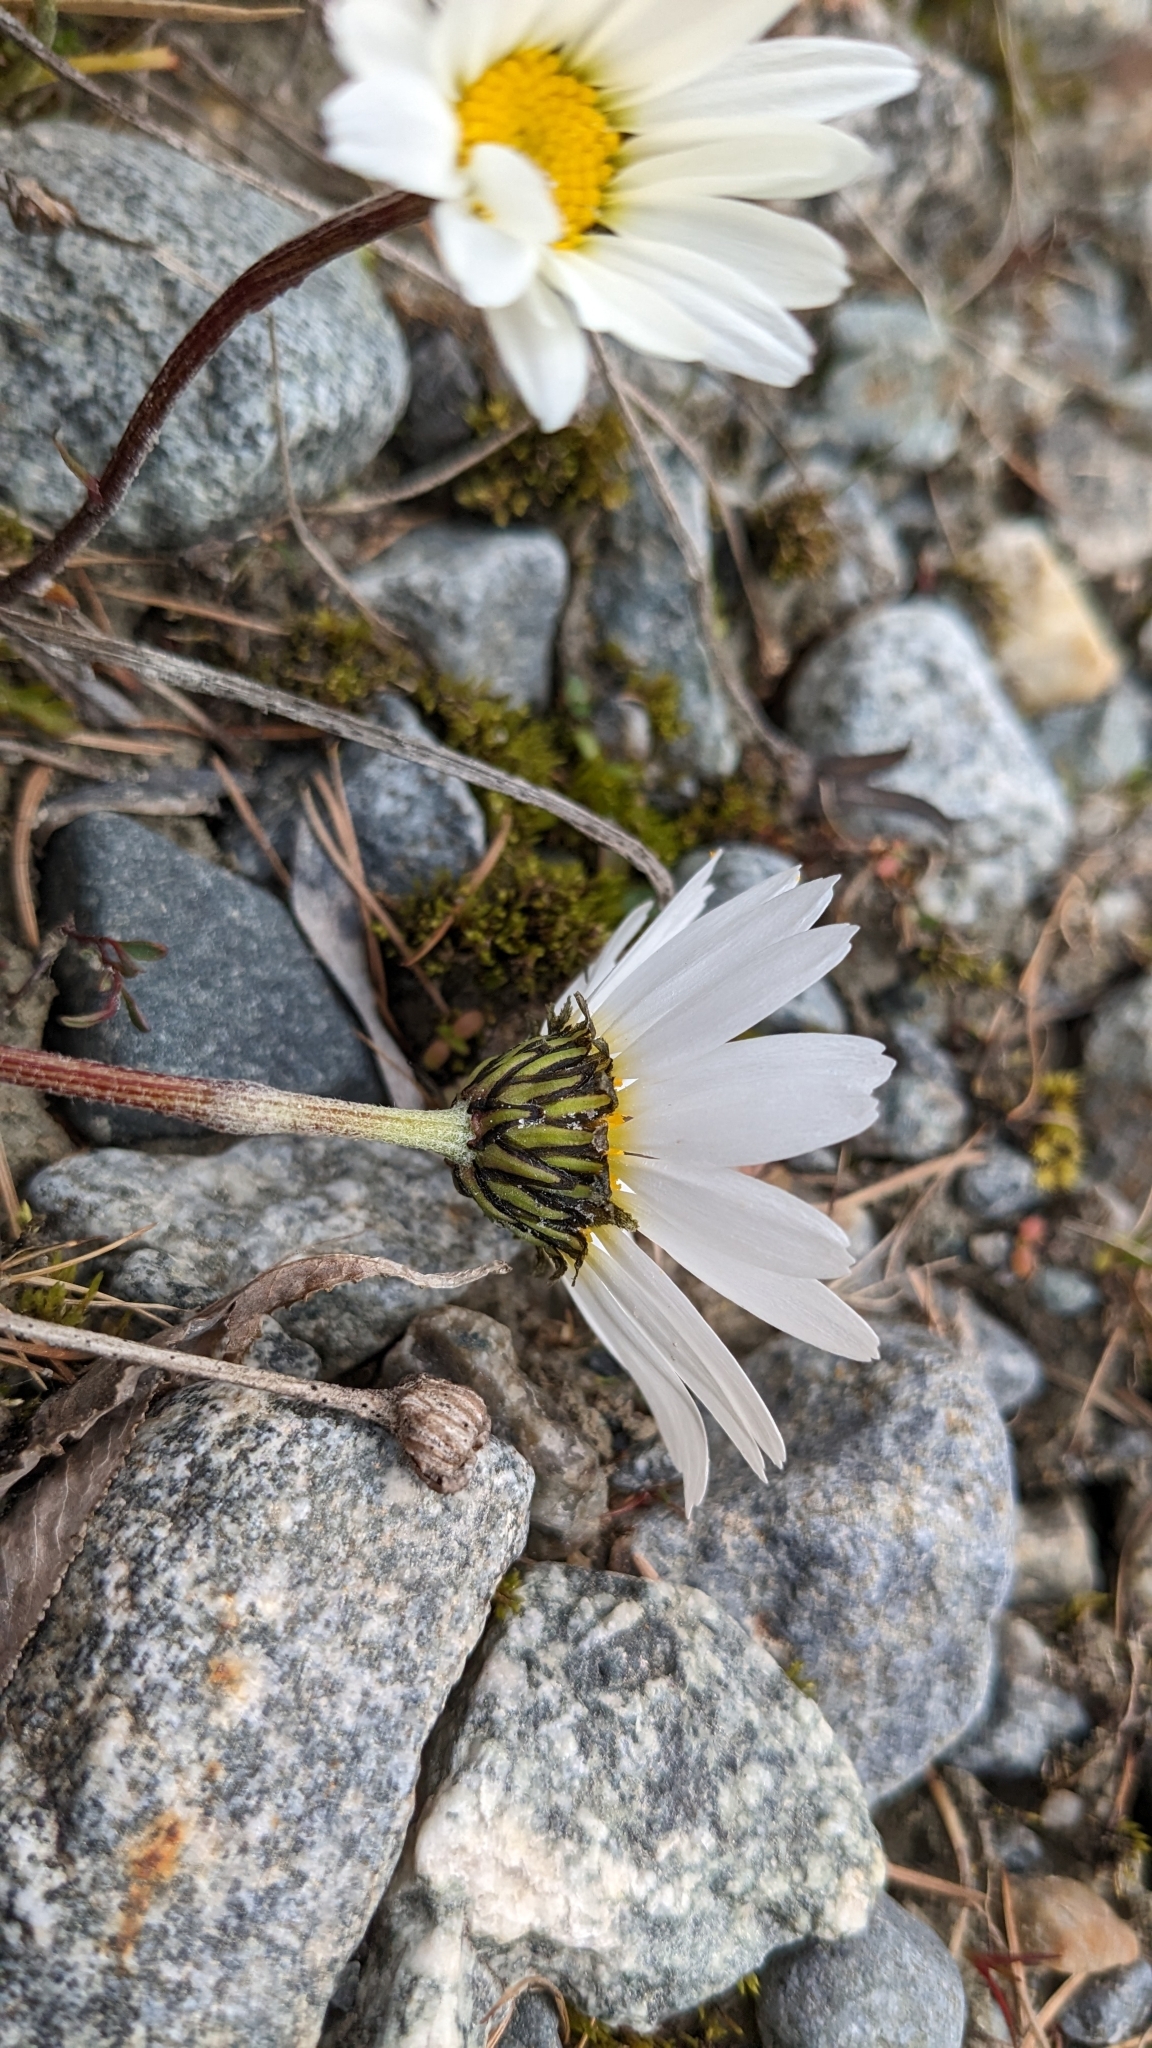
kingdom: Plantae
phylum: Tracheophyta
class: Magnoliopsida
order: Asterales
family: Asteraceae
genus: Leucanthemopsis
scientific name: Leucanthemopsis alpina
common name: Alpine moon daisy
